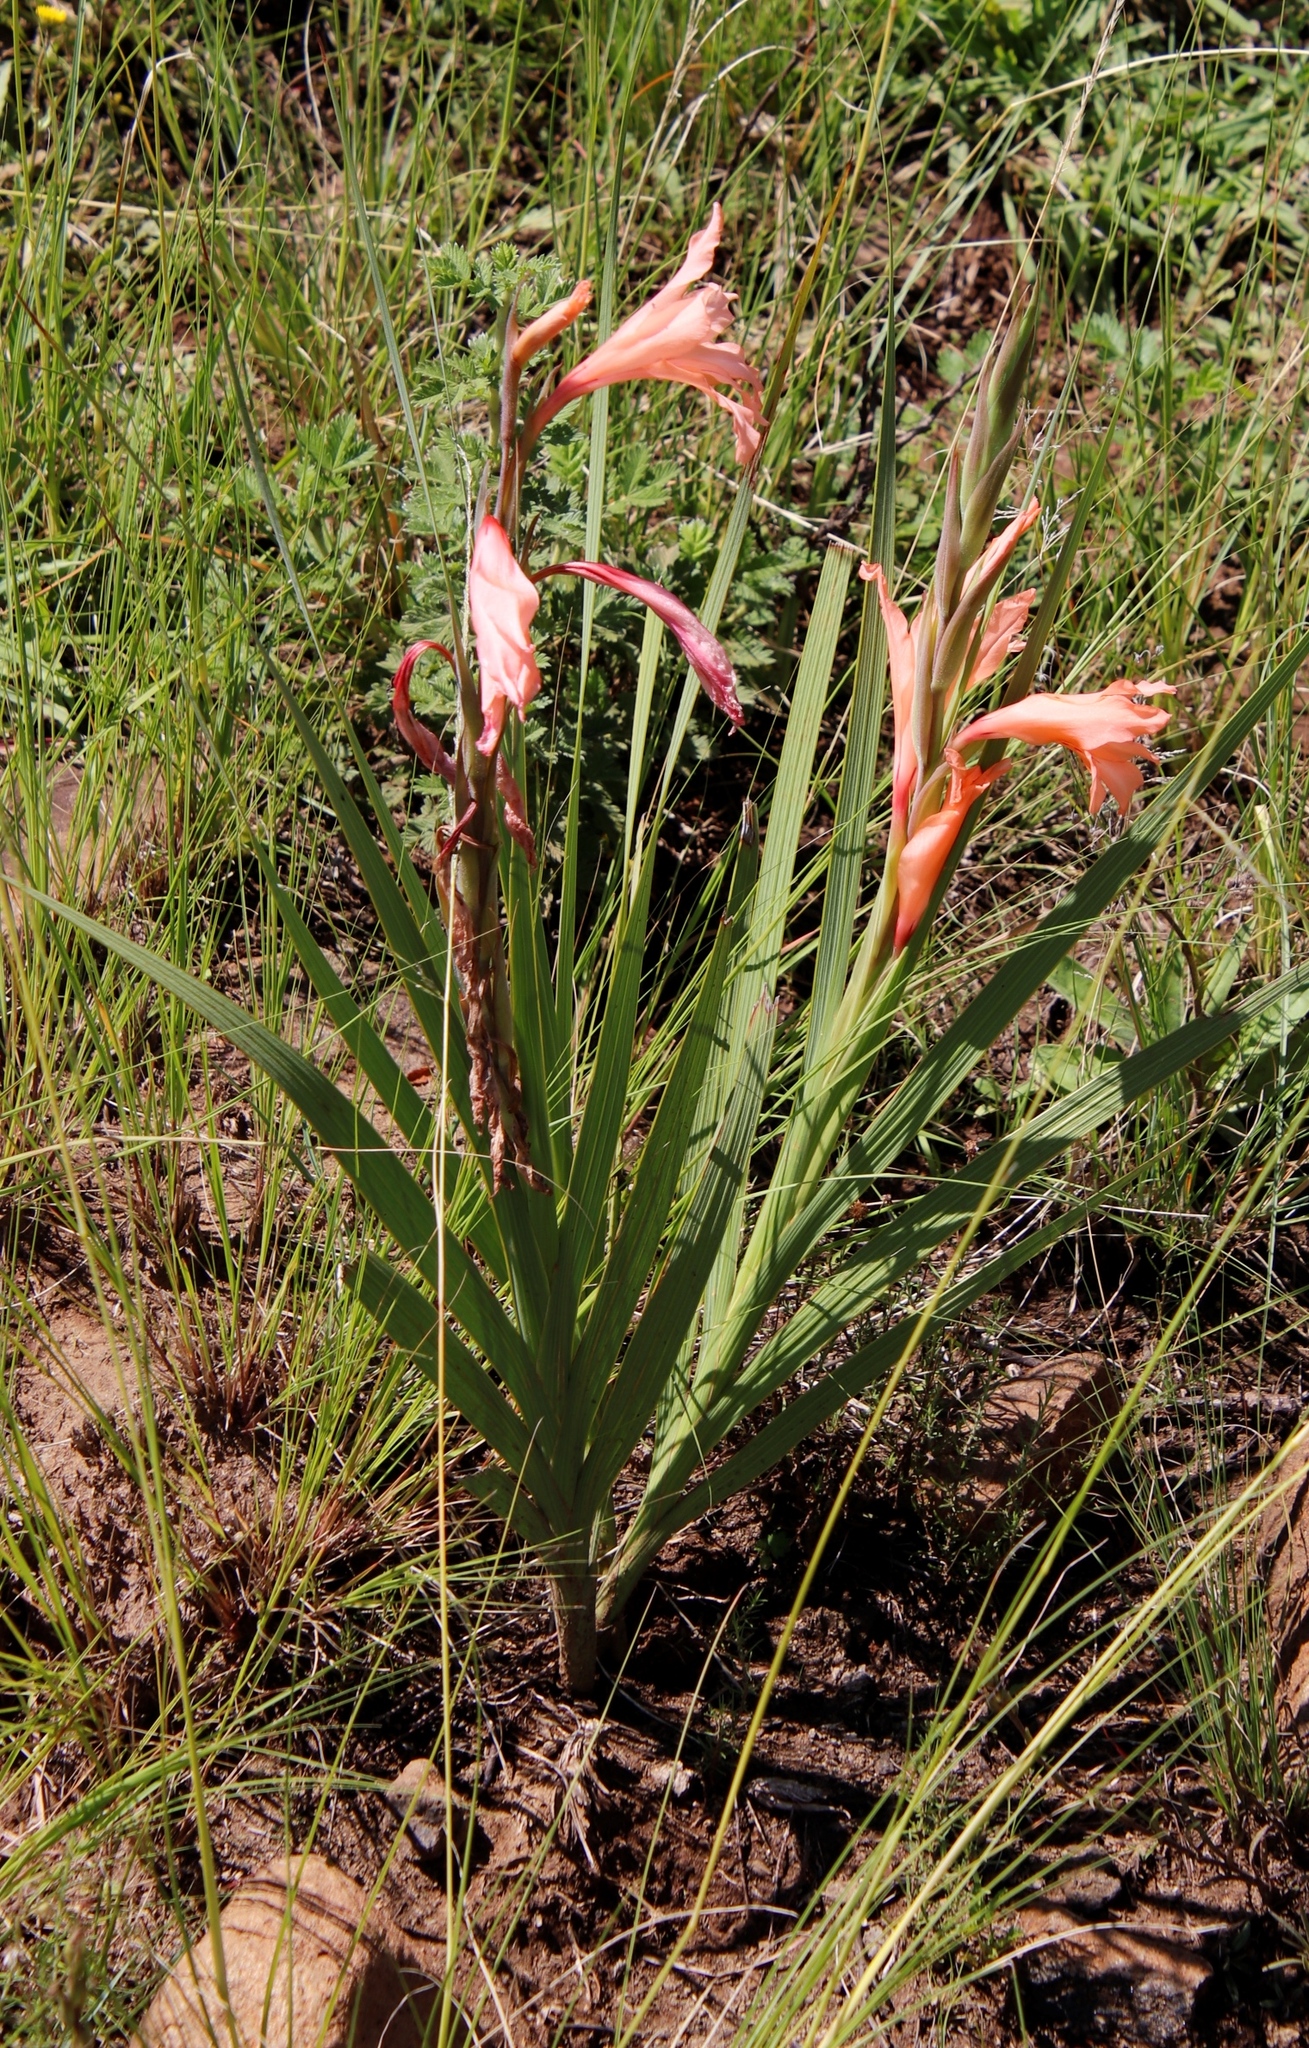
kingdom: Plantae
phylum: Tracheophyta
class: Liliopsida
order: Asparagales
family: Iridaceae
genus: Gladiolus
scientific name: Gladiolus oppositiflorus
